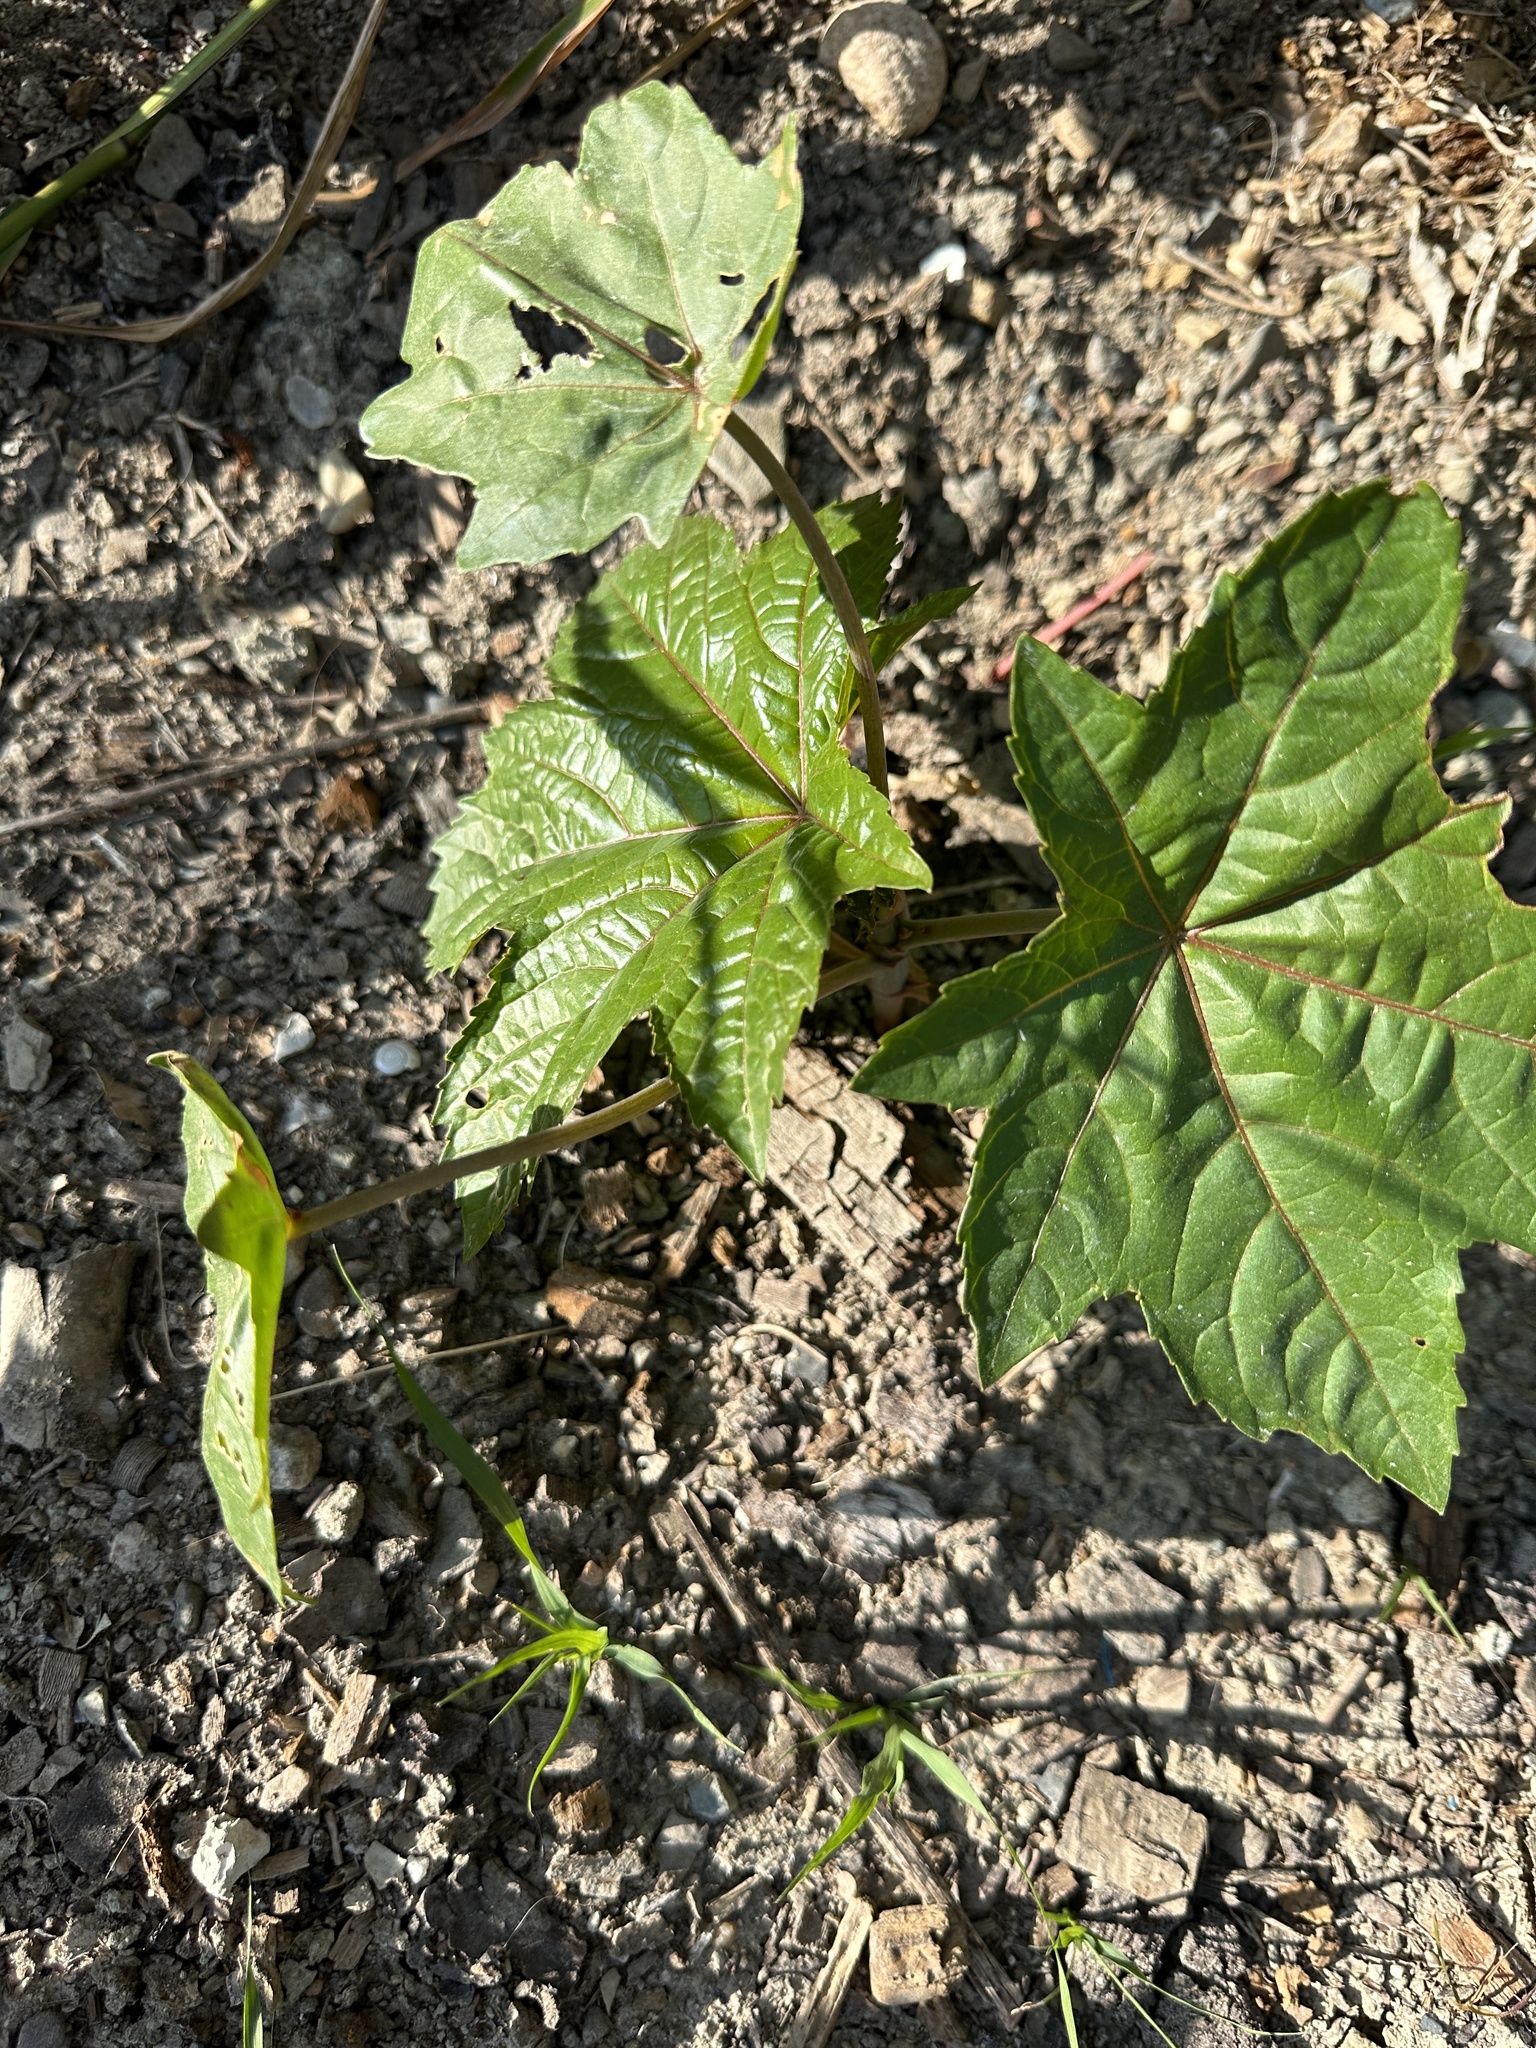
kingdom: Plantae
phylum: Tracheophyta
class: Magnoliopsida
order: Malpighiales
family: Euphorbiaceae
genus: Ricinus
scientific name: Ricinus communis
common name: Castor-oil-plant
